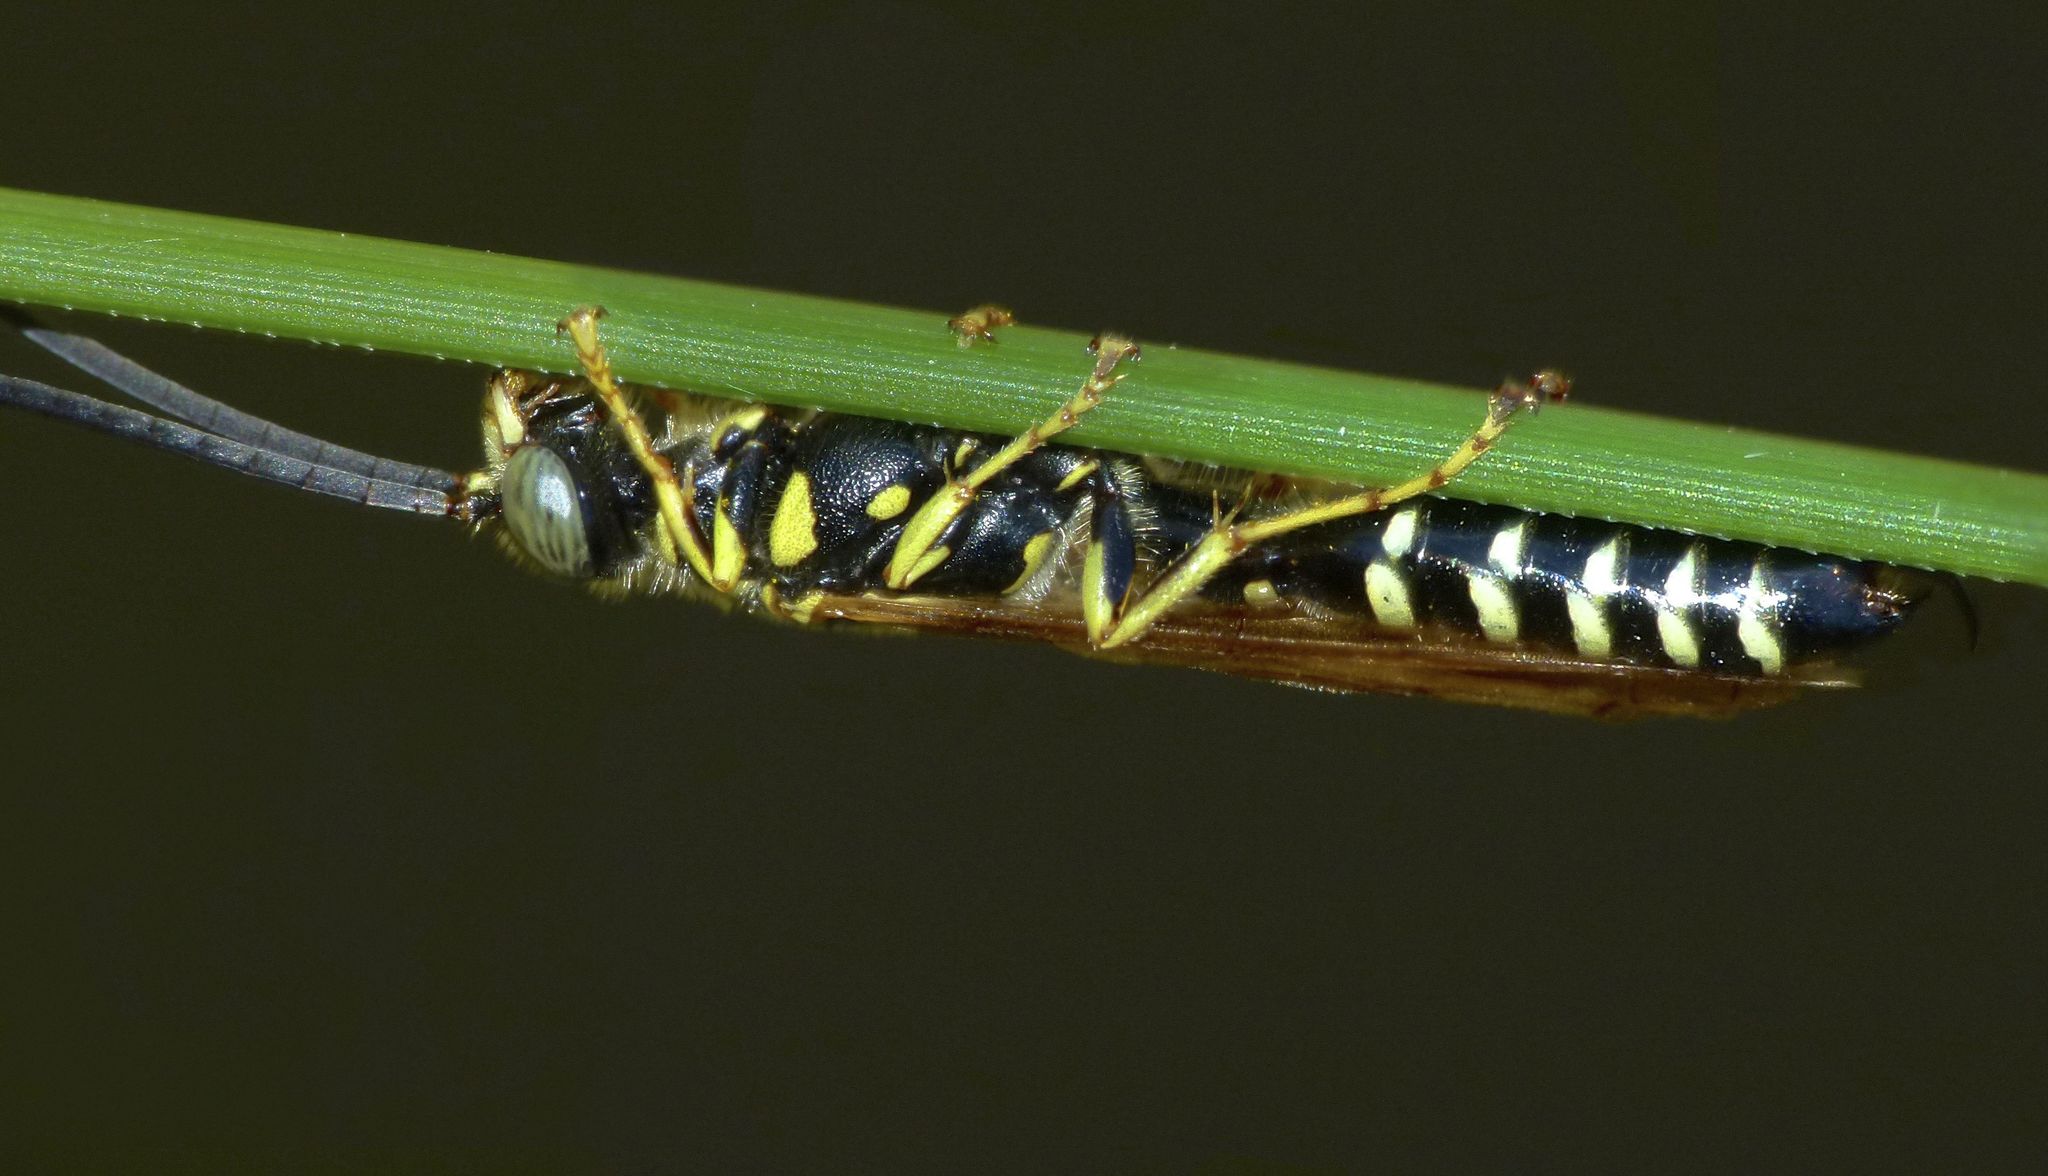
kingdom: Animalia
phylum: Arthropoda
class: Insecta
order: Hymenoptera
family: Tiphiidae
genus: Myzinum
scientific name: Myzinum
